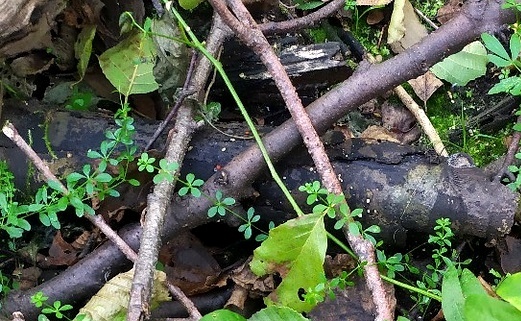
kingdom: Plantae
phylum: Tracheophyta
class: Magnoliopsida
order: Gentianales
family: Rubiaceae
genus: Galium
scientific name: Galium palustre
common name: Common marsh-bedstraw
